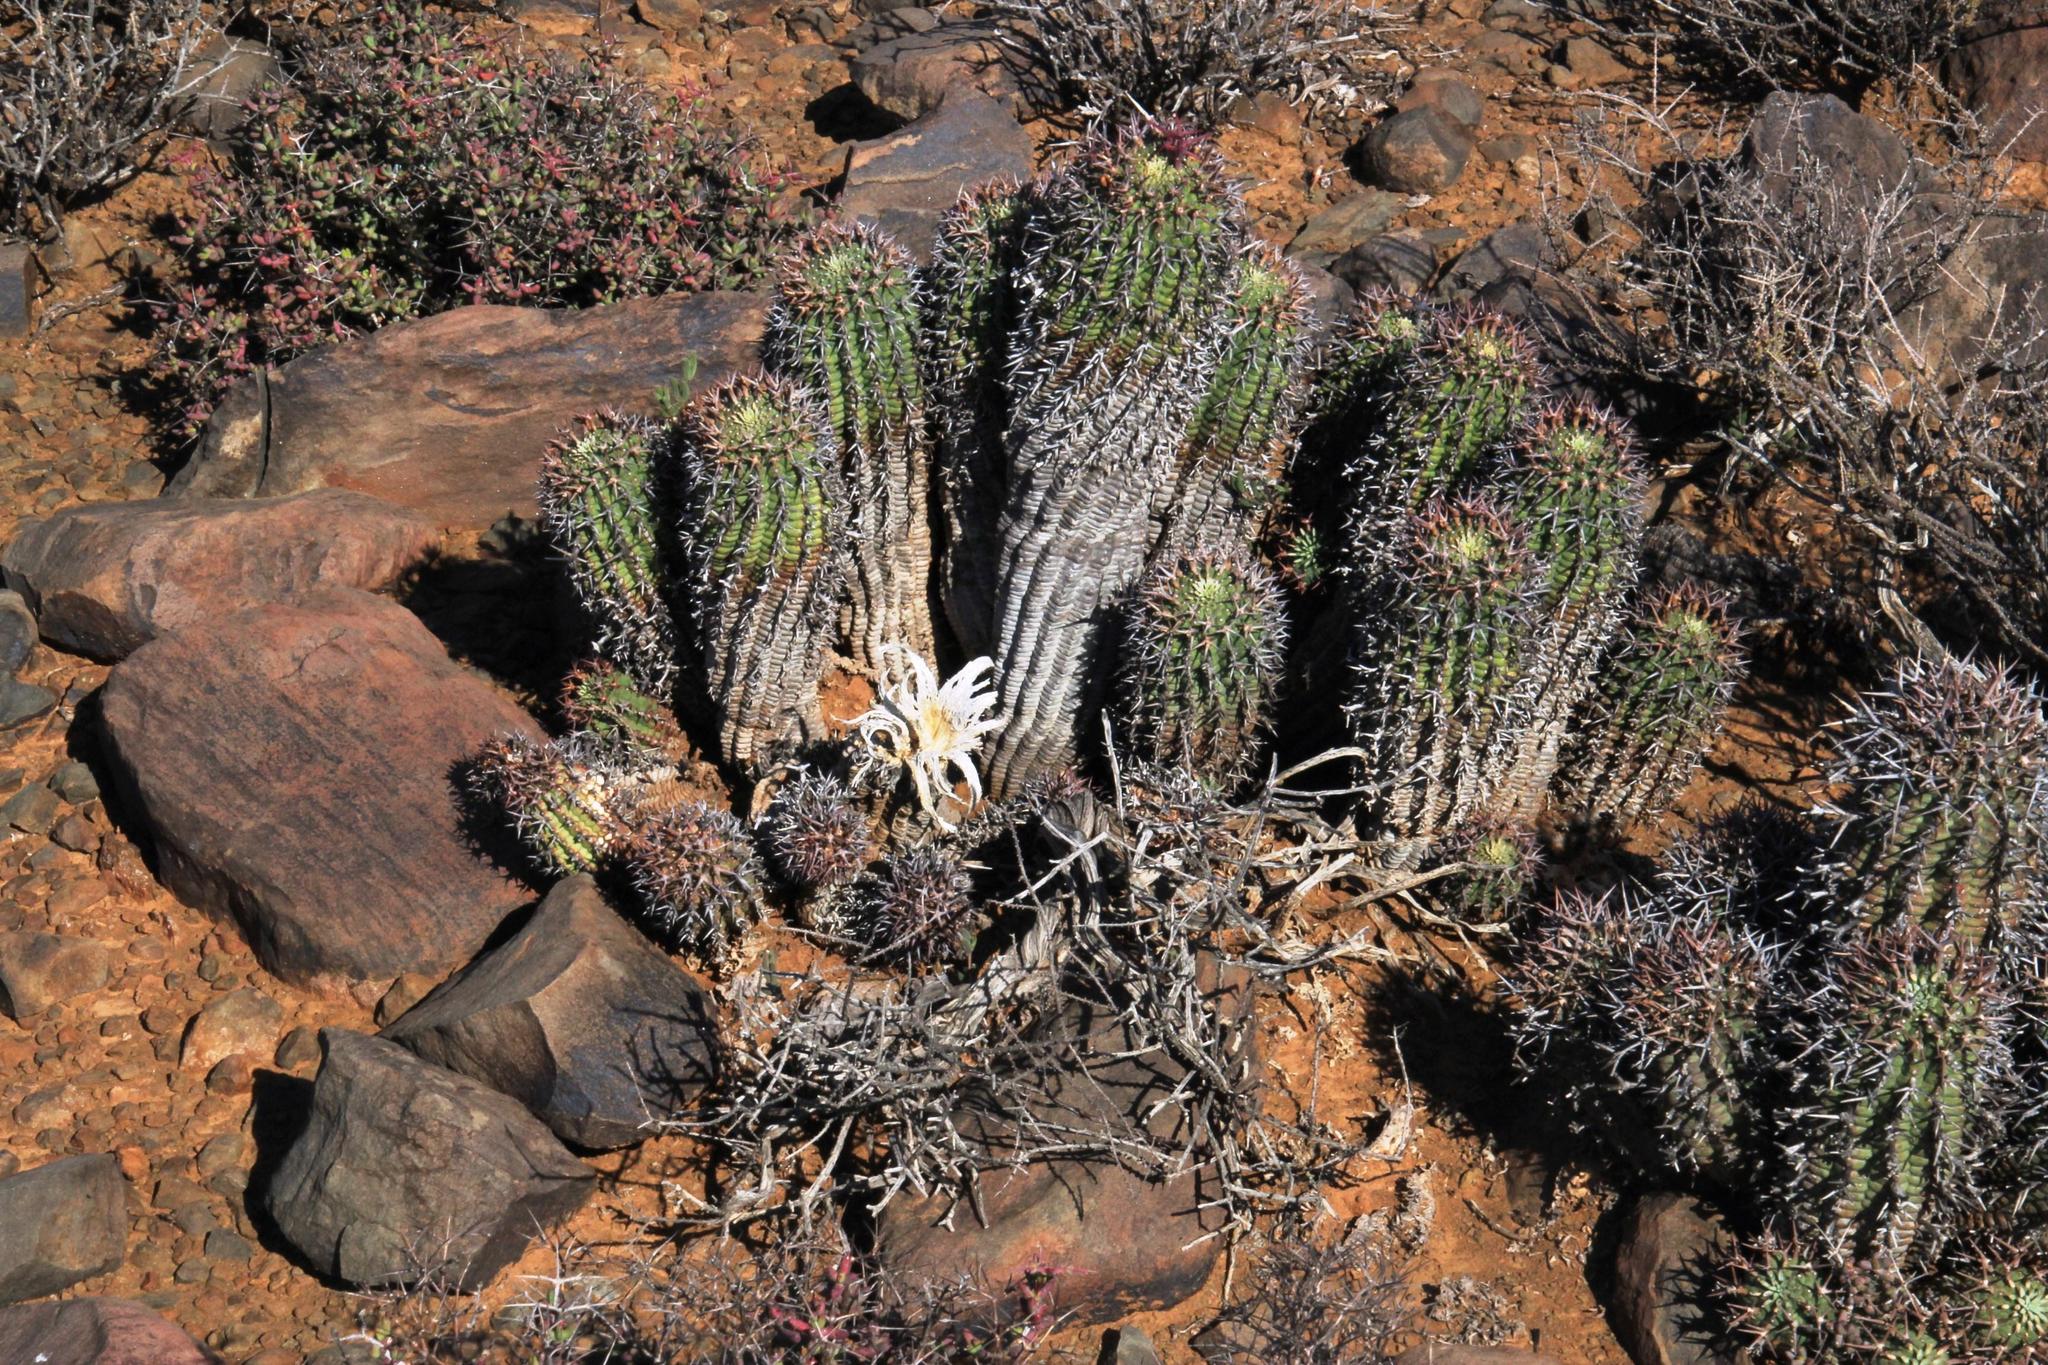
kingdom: Plantae
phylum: Tracheophyta
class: Magnoliopsida
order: Malpighiales
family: Euphorbiaceae
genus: Euphorbia
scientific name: Euphorbia stellispina
